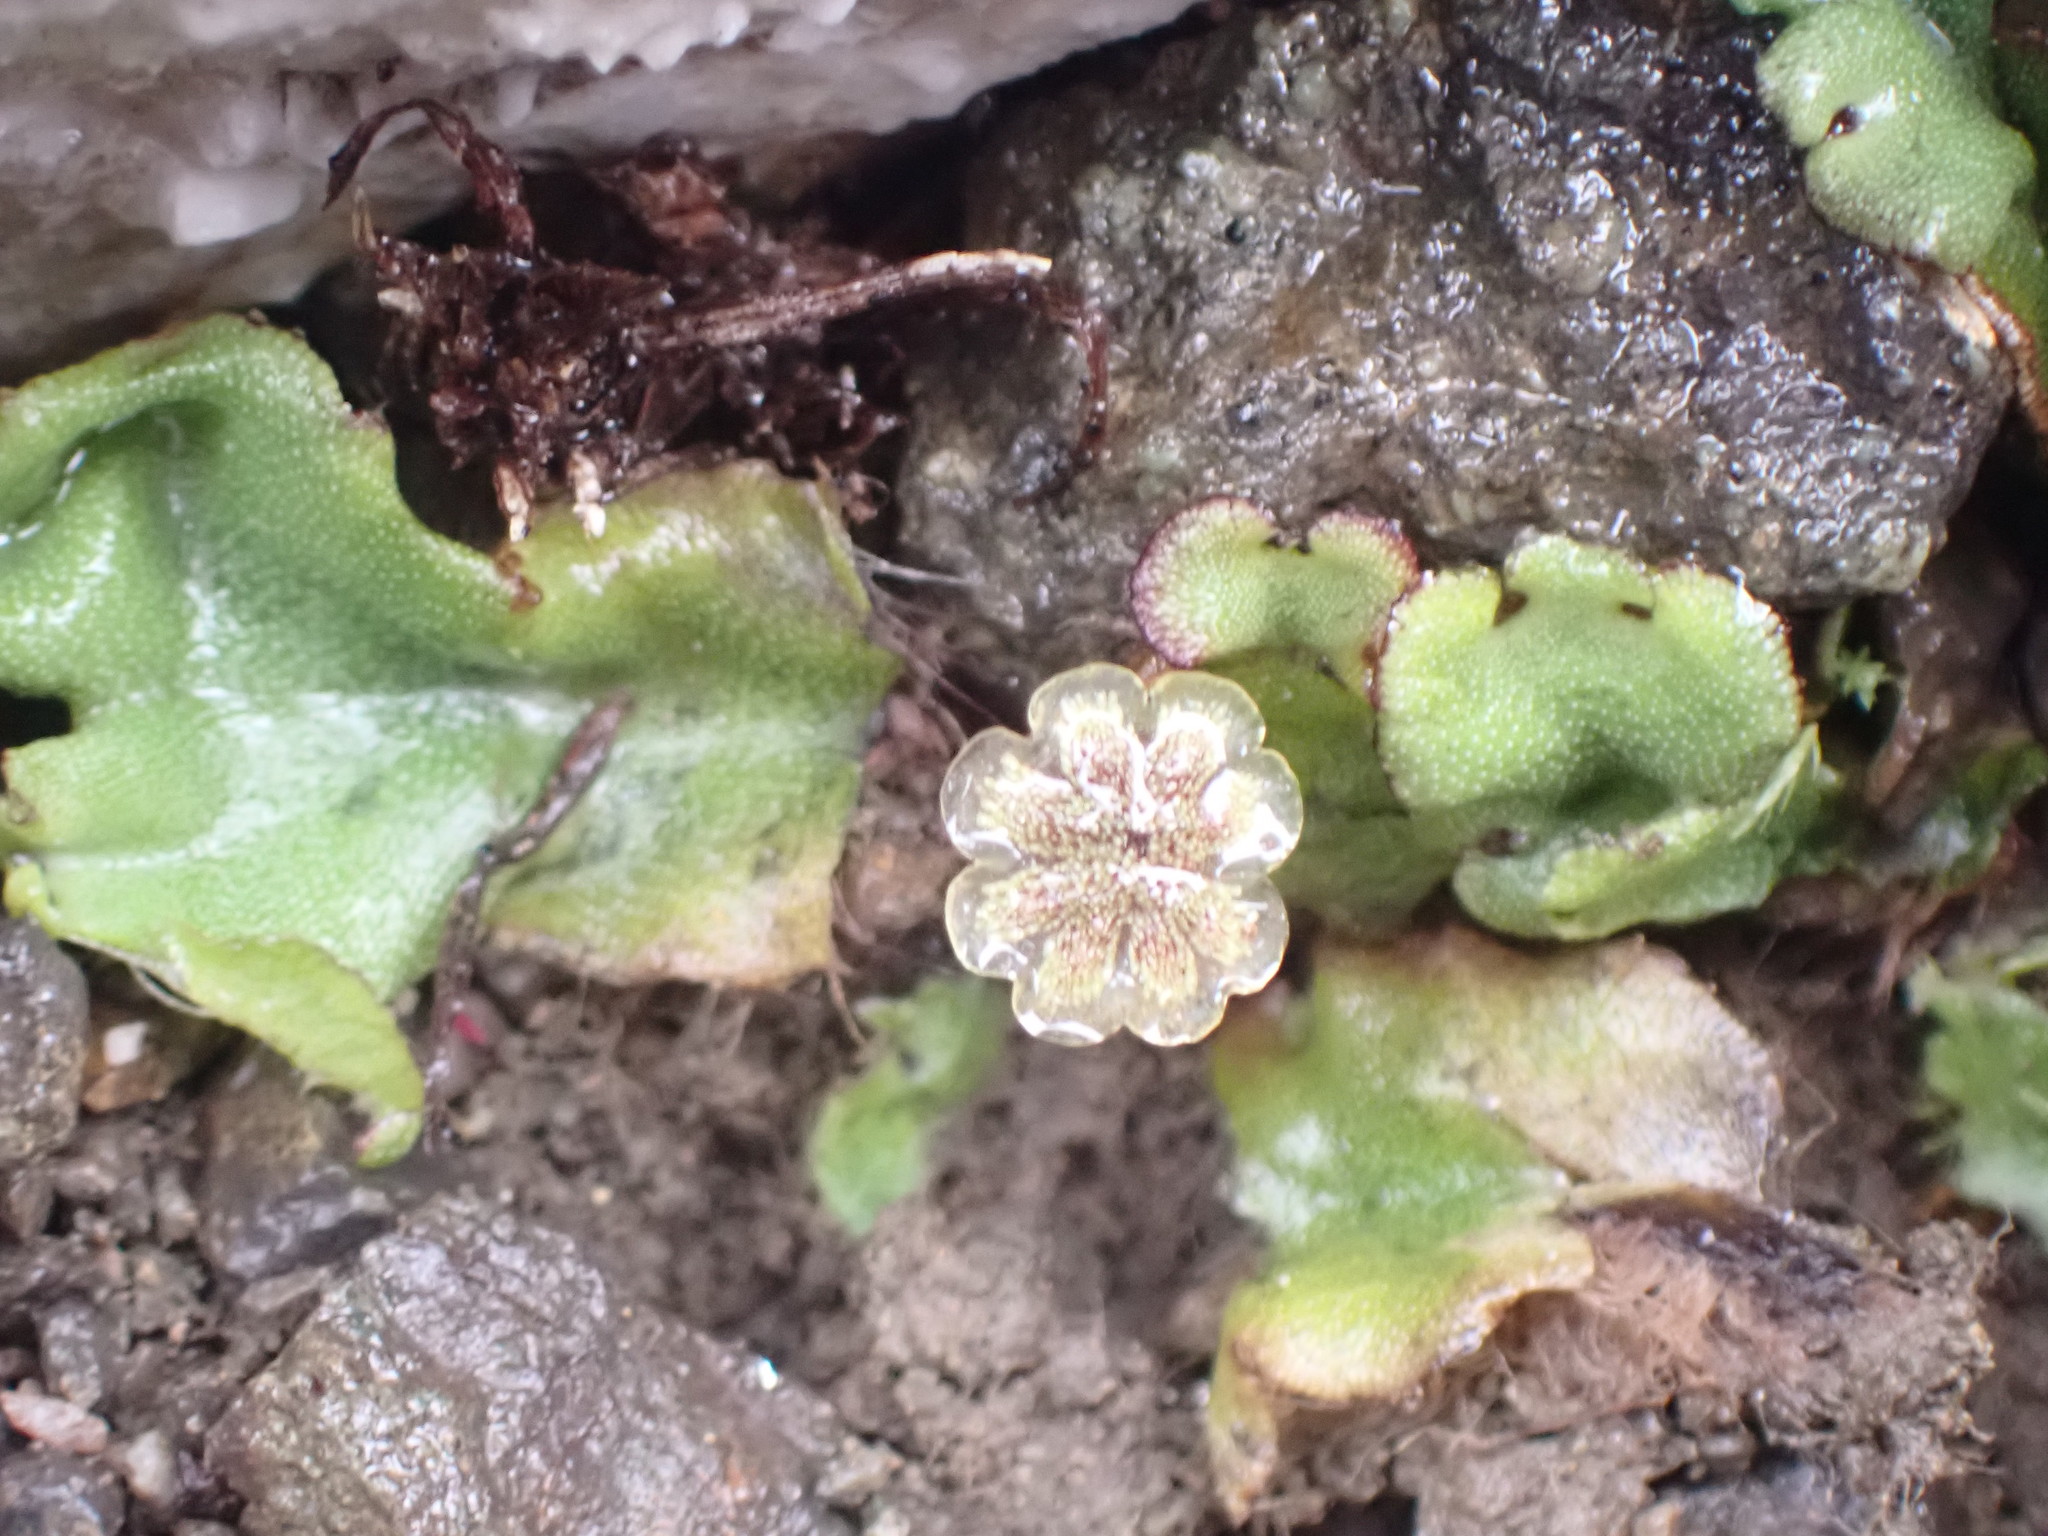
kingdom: Plantae
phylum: Marchantiophyta
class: Marchantiopsida
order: Marchantiales
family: Marchantiaceae
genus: Marchantia
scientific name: Marchantia polymorpha
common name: Common liverwort
